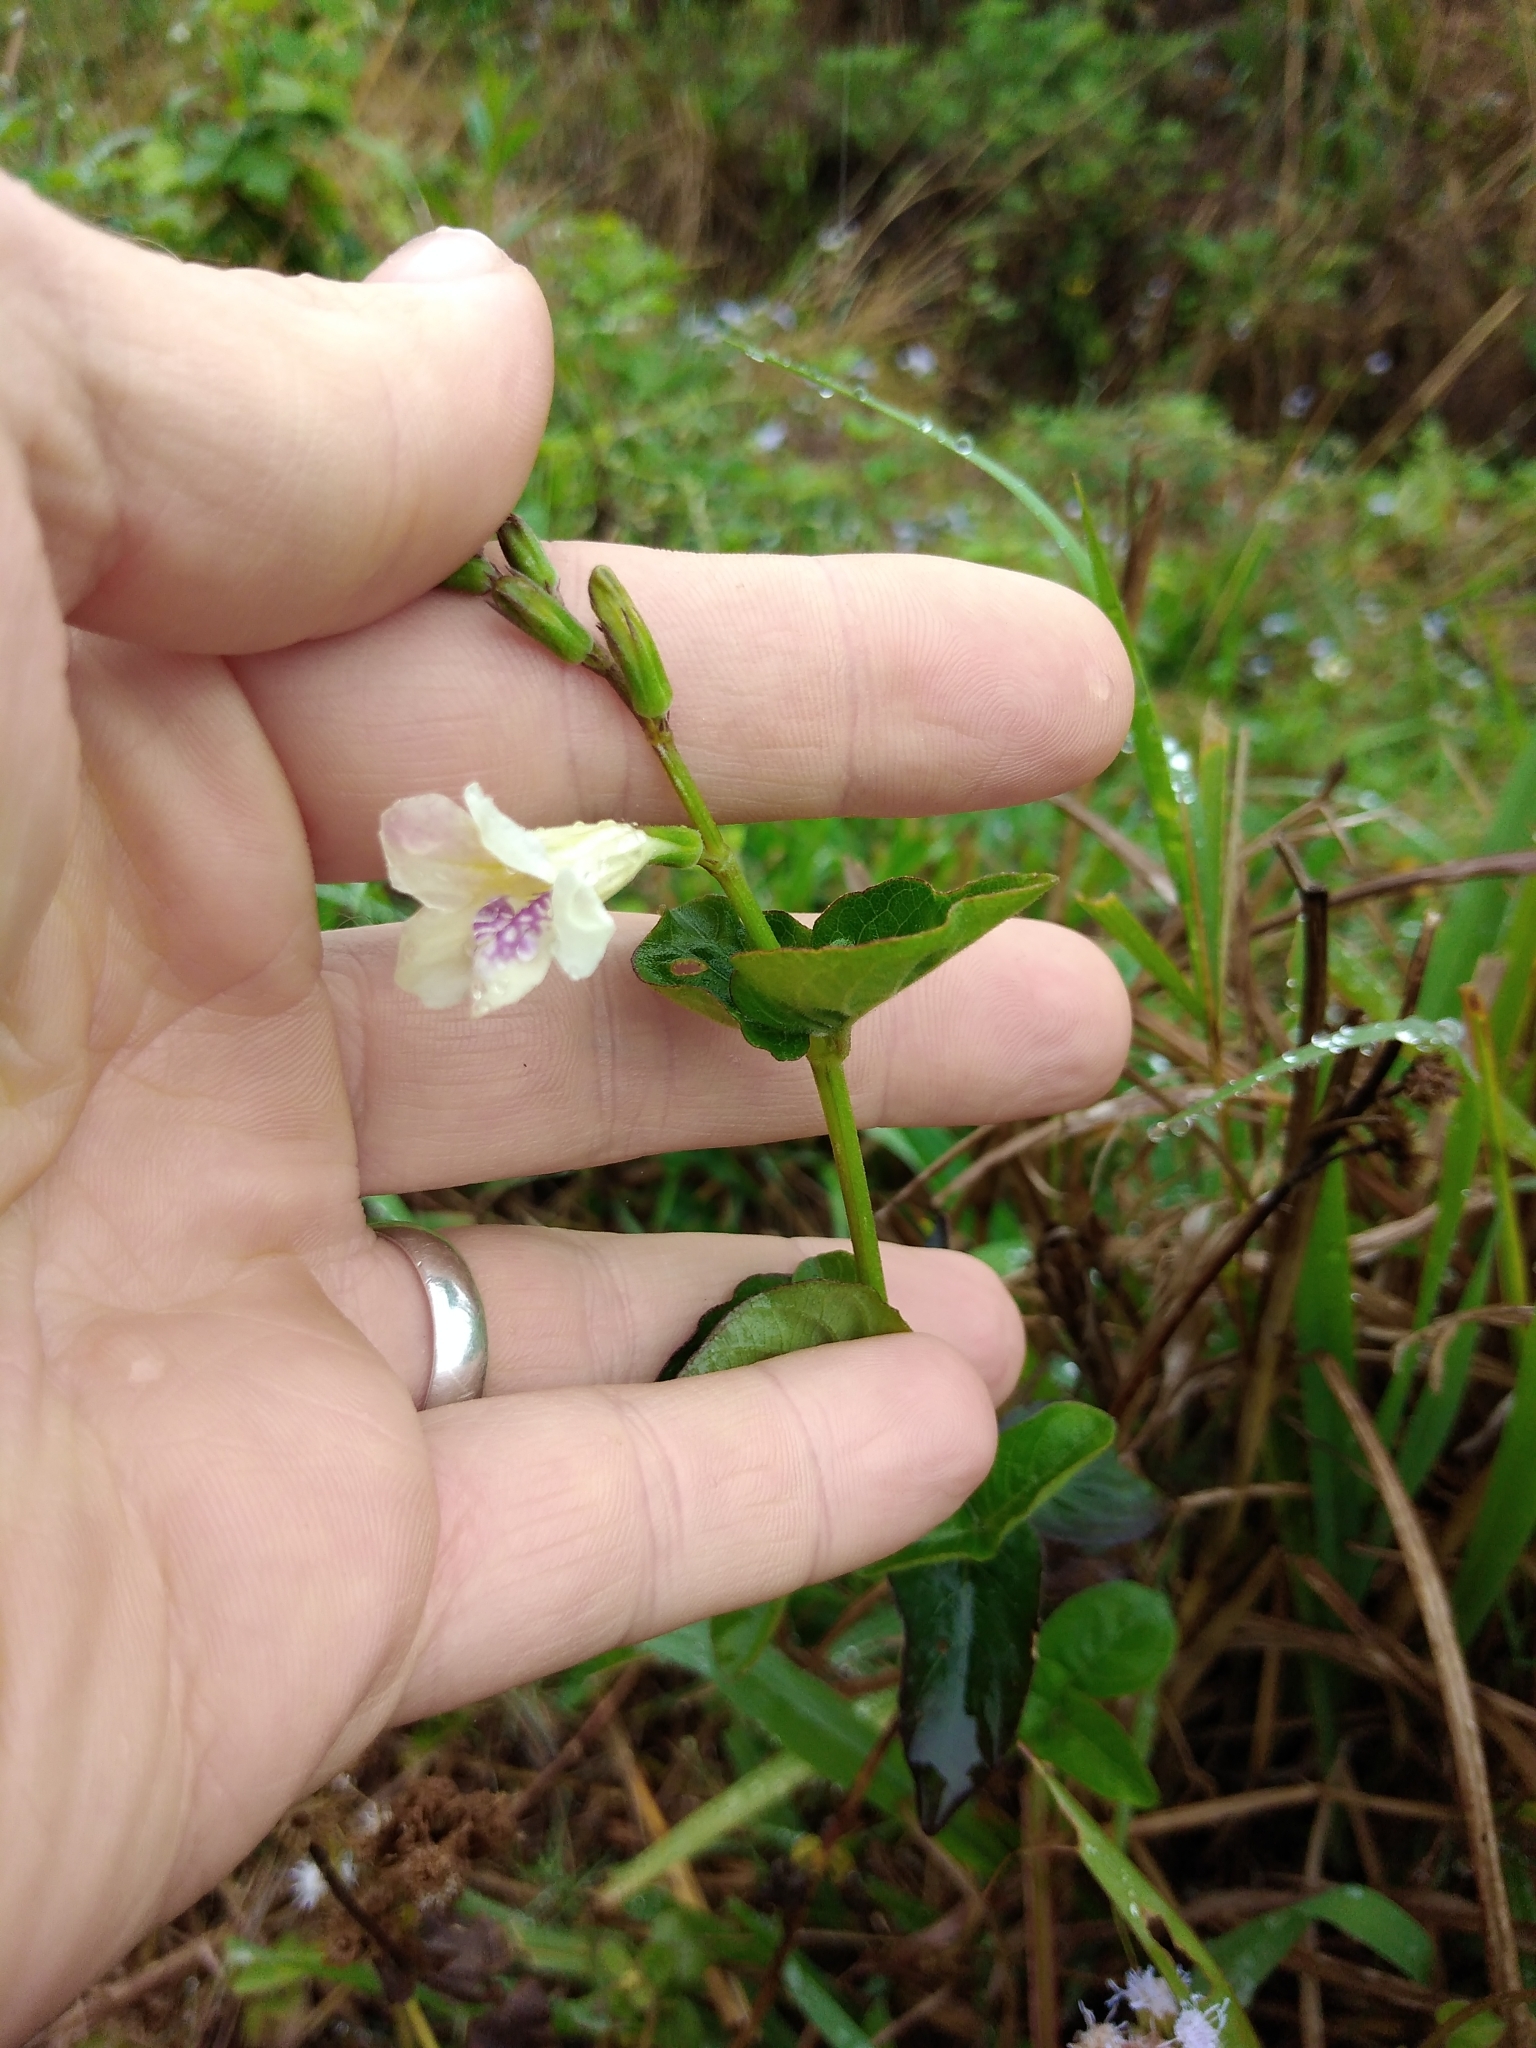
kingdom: Plantae
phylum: Tracheophyta
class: Magnoliopsida
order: Lamiales
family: Acanthaceae
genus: Asystasia
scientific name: Asystasia intrusa
